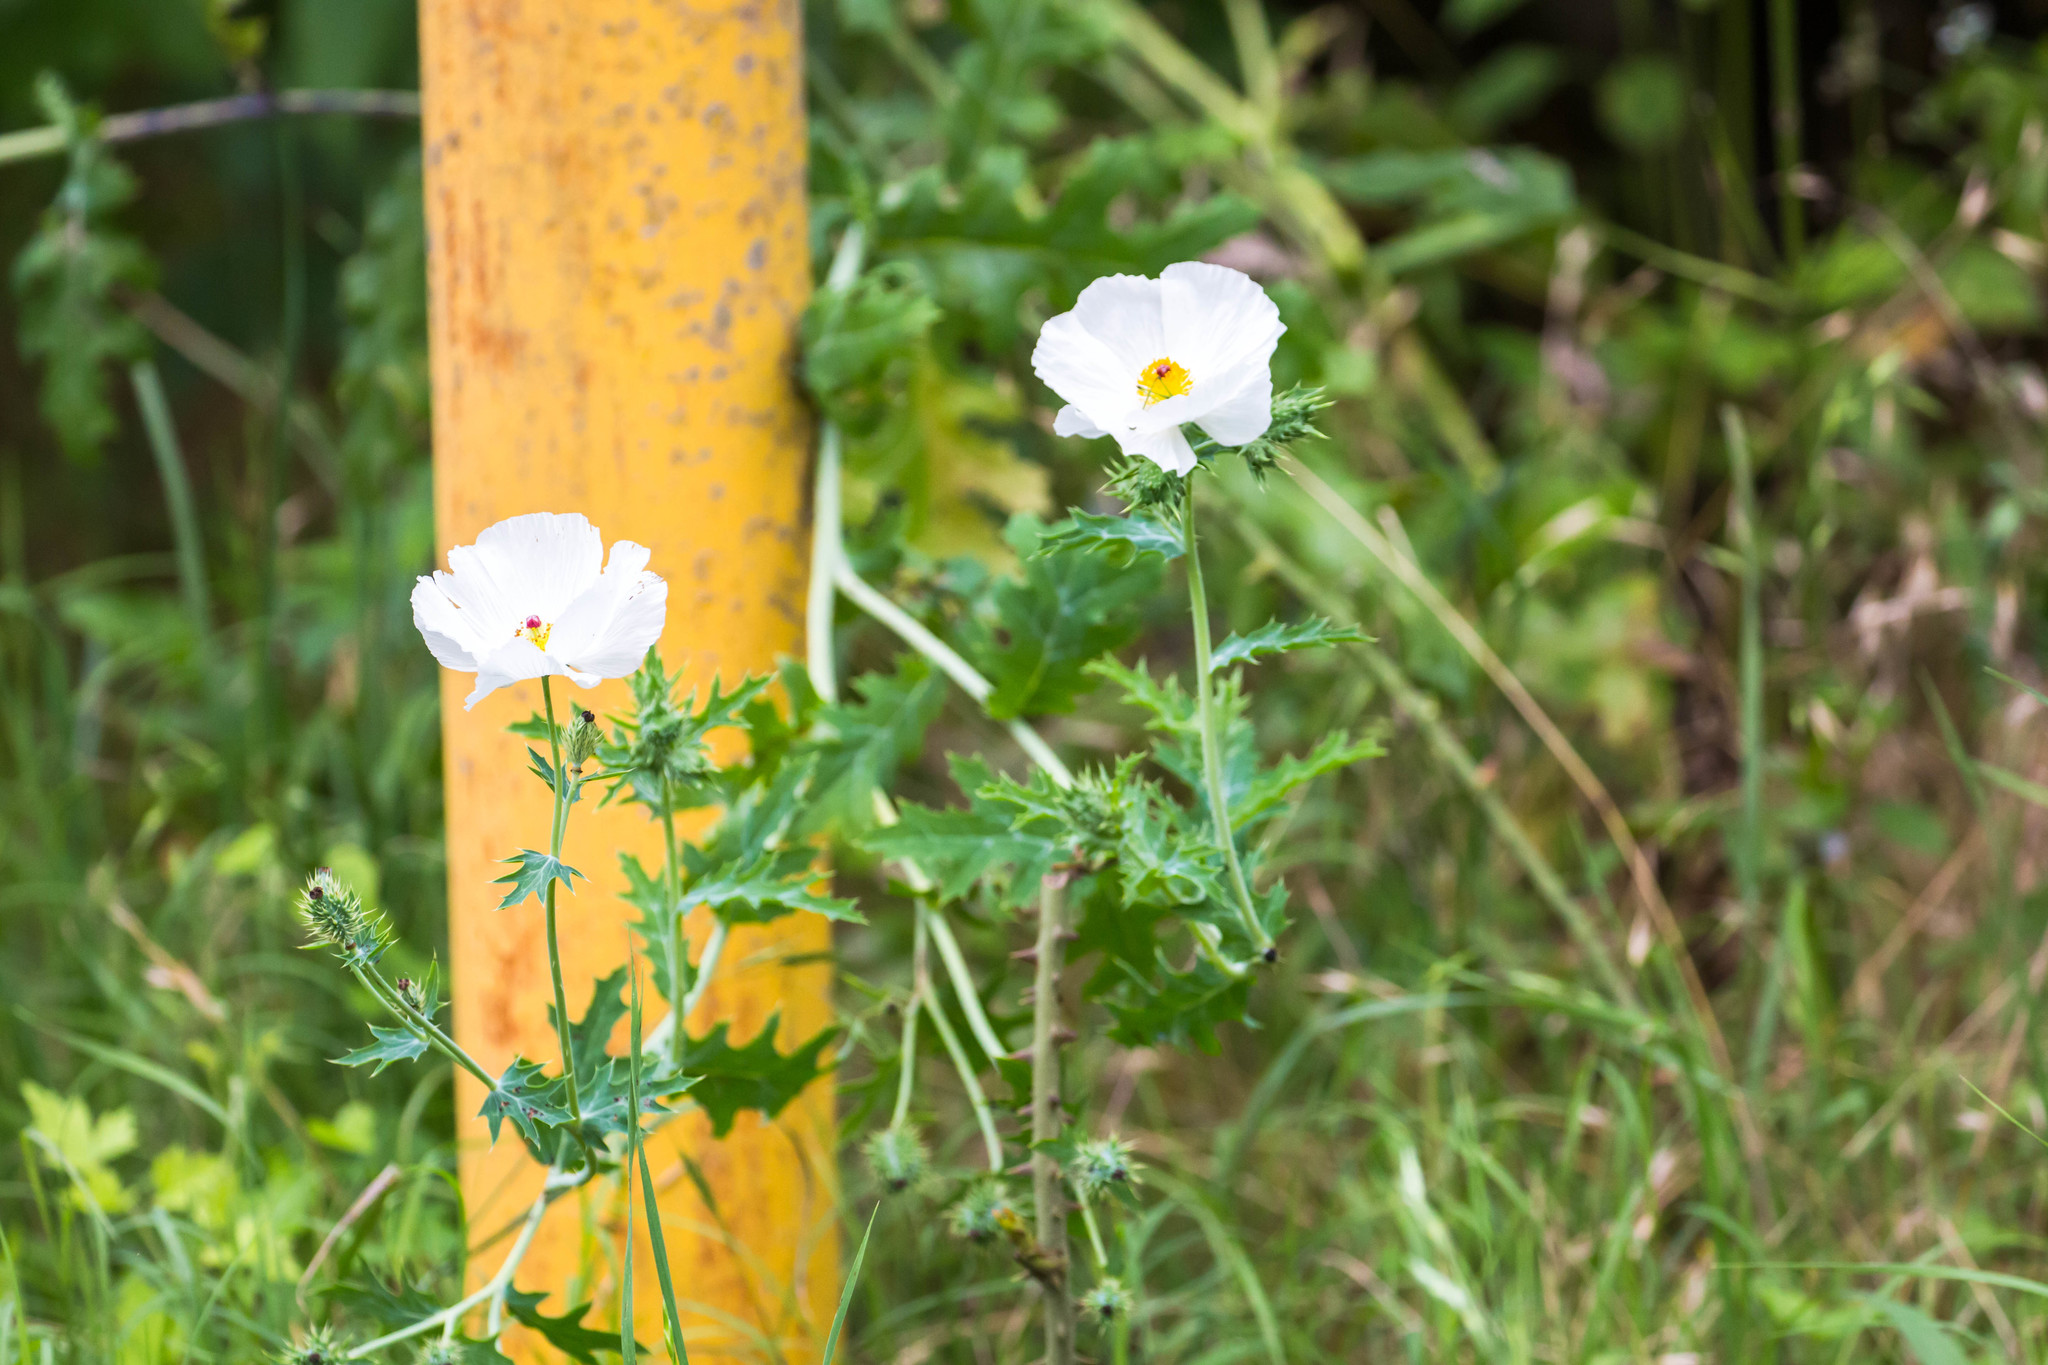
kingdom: Plantae
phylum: Tracheophyta
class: Magnoliopsida
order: Ranunculales
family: Papaveraceae
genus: Argemone
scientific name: Argemone albiflora
